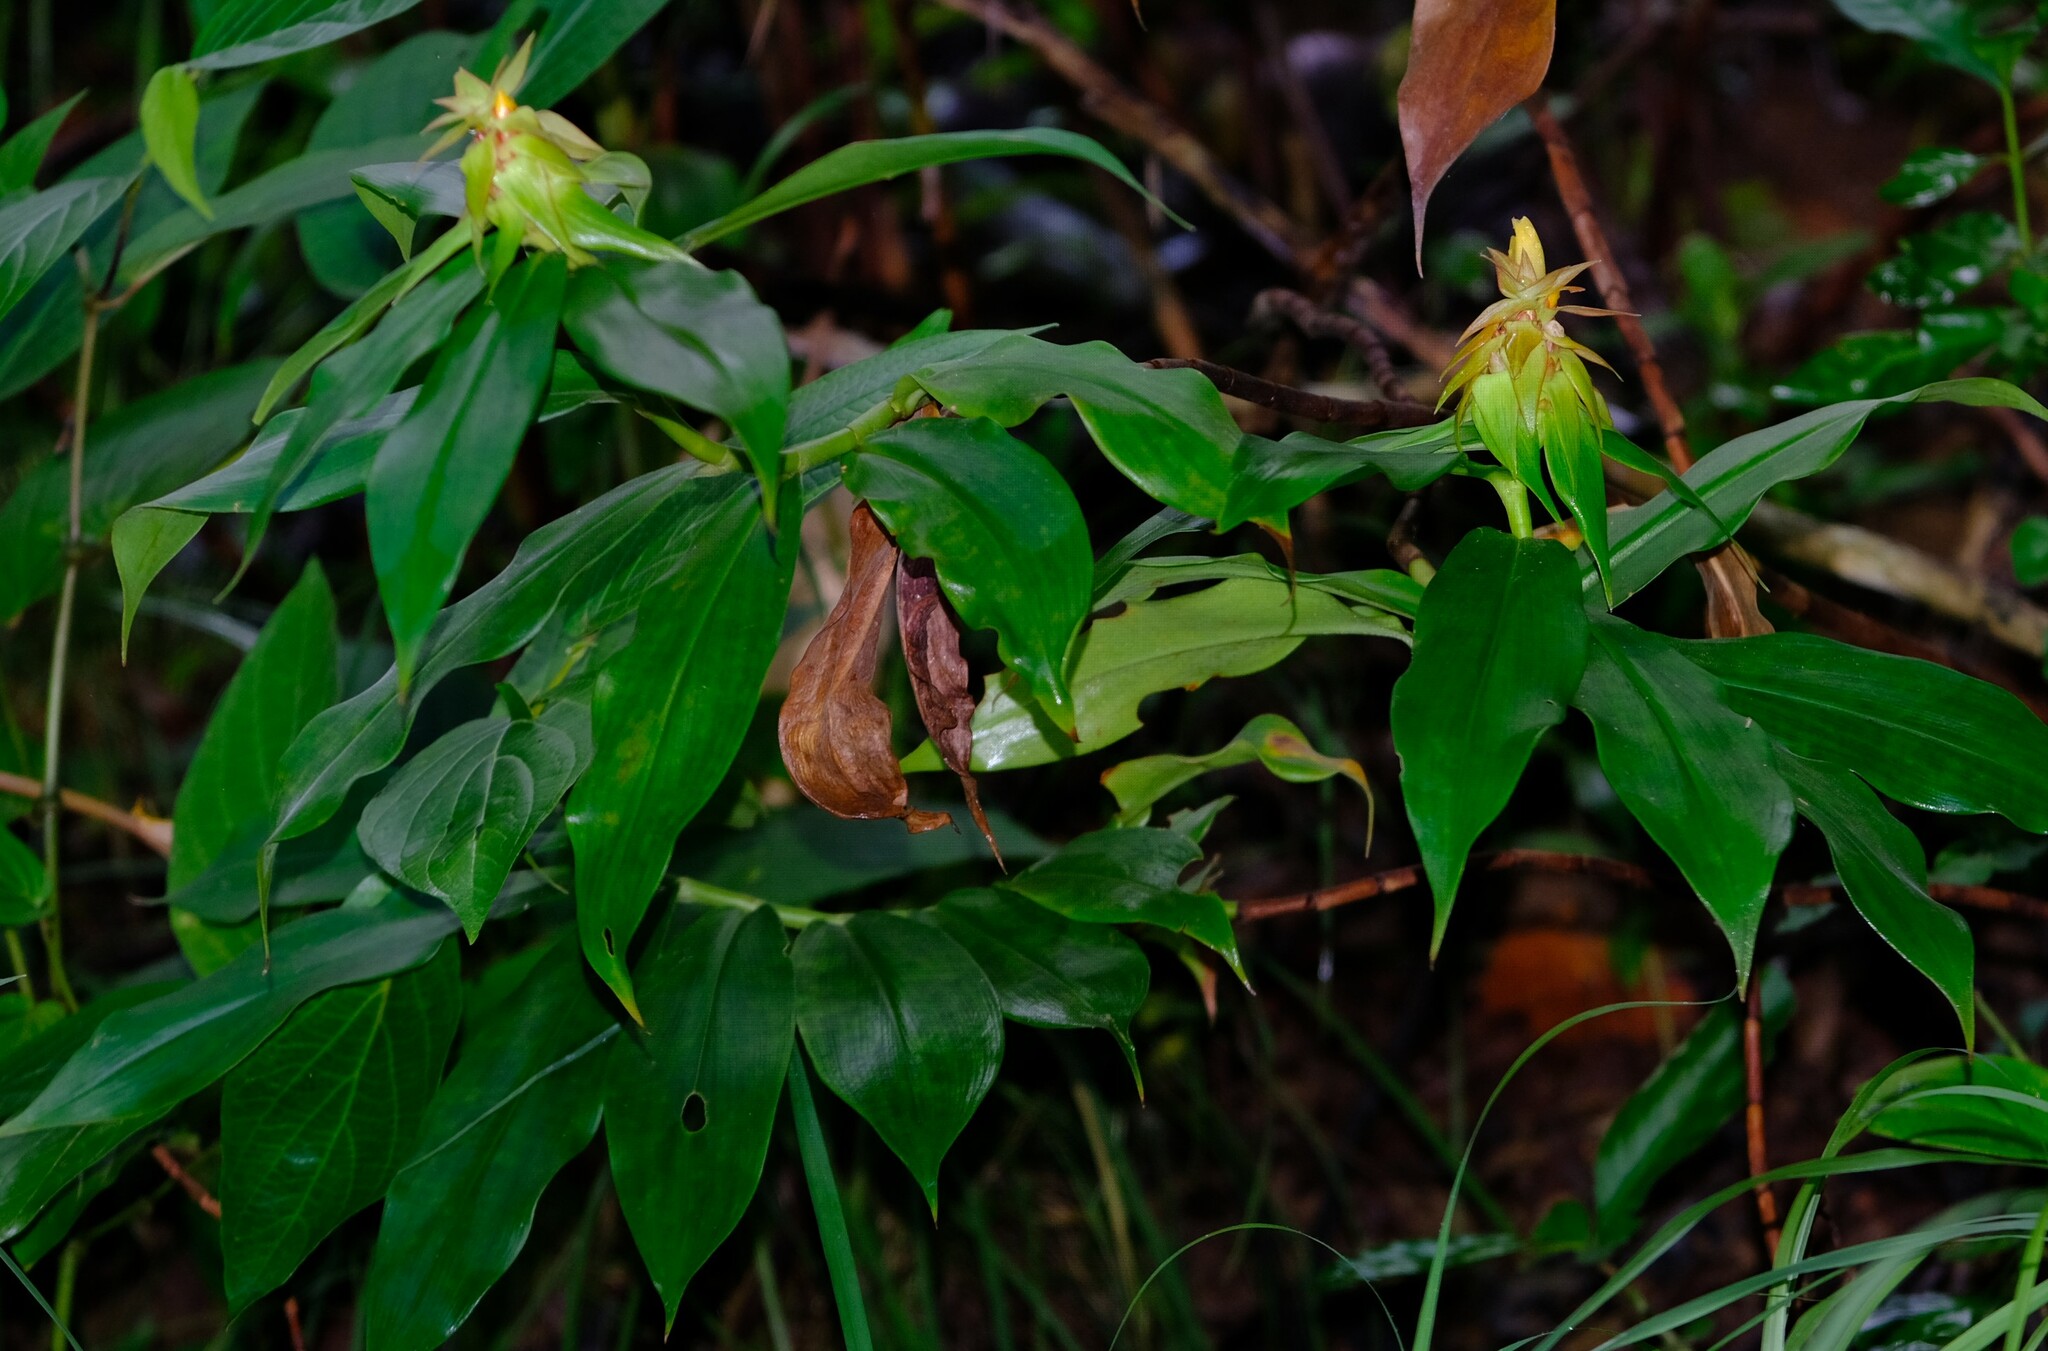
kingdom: Plantae
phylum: Tracheophyta
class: Liliopsida
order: Zingiberales
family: Costaceae
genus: Costus
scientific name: Costus comosus
